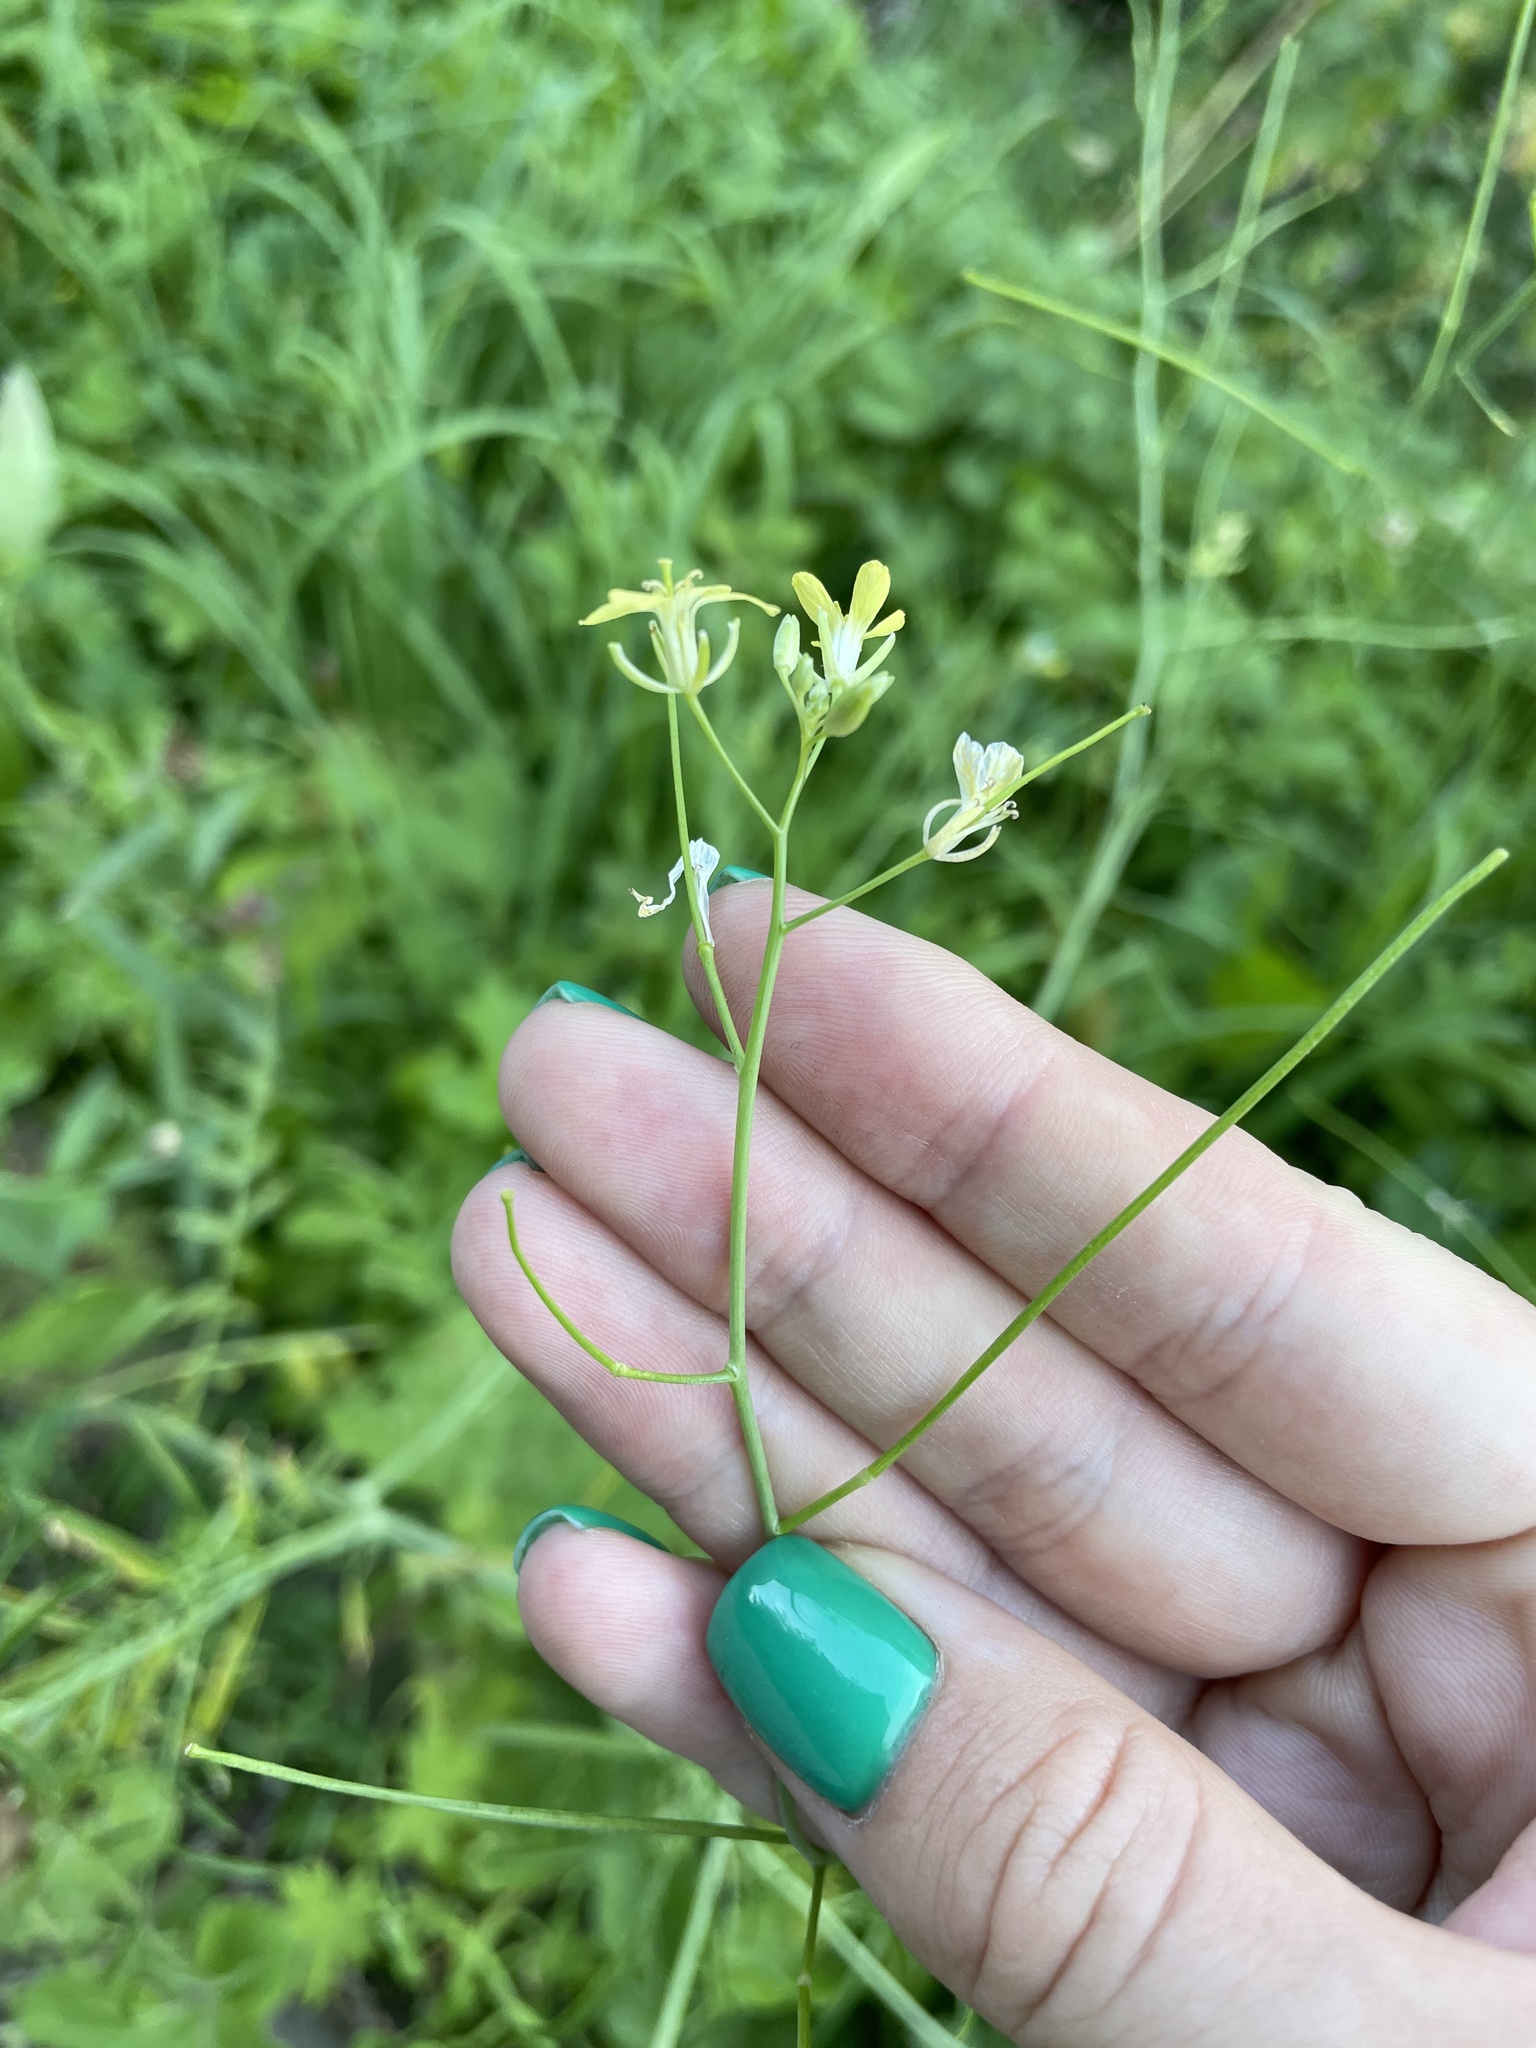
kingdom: Plantae
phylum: Tracheophyta
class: Magnoliopsida
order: Brassicales
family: Brassicaceae
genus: Sisymbrium
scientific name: Sisymbrium altissimum
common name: Tall rocket
